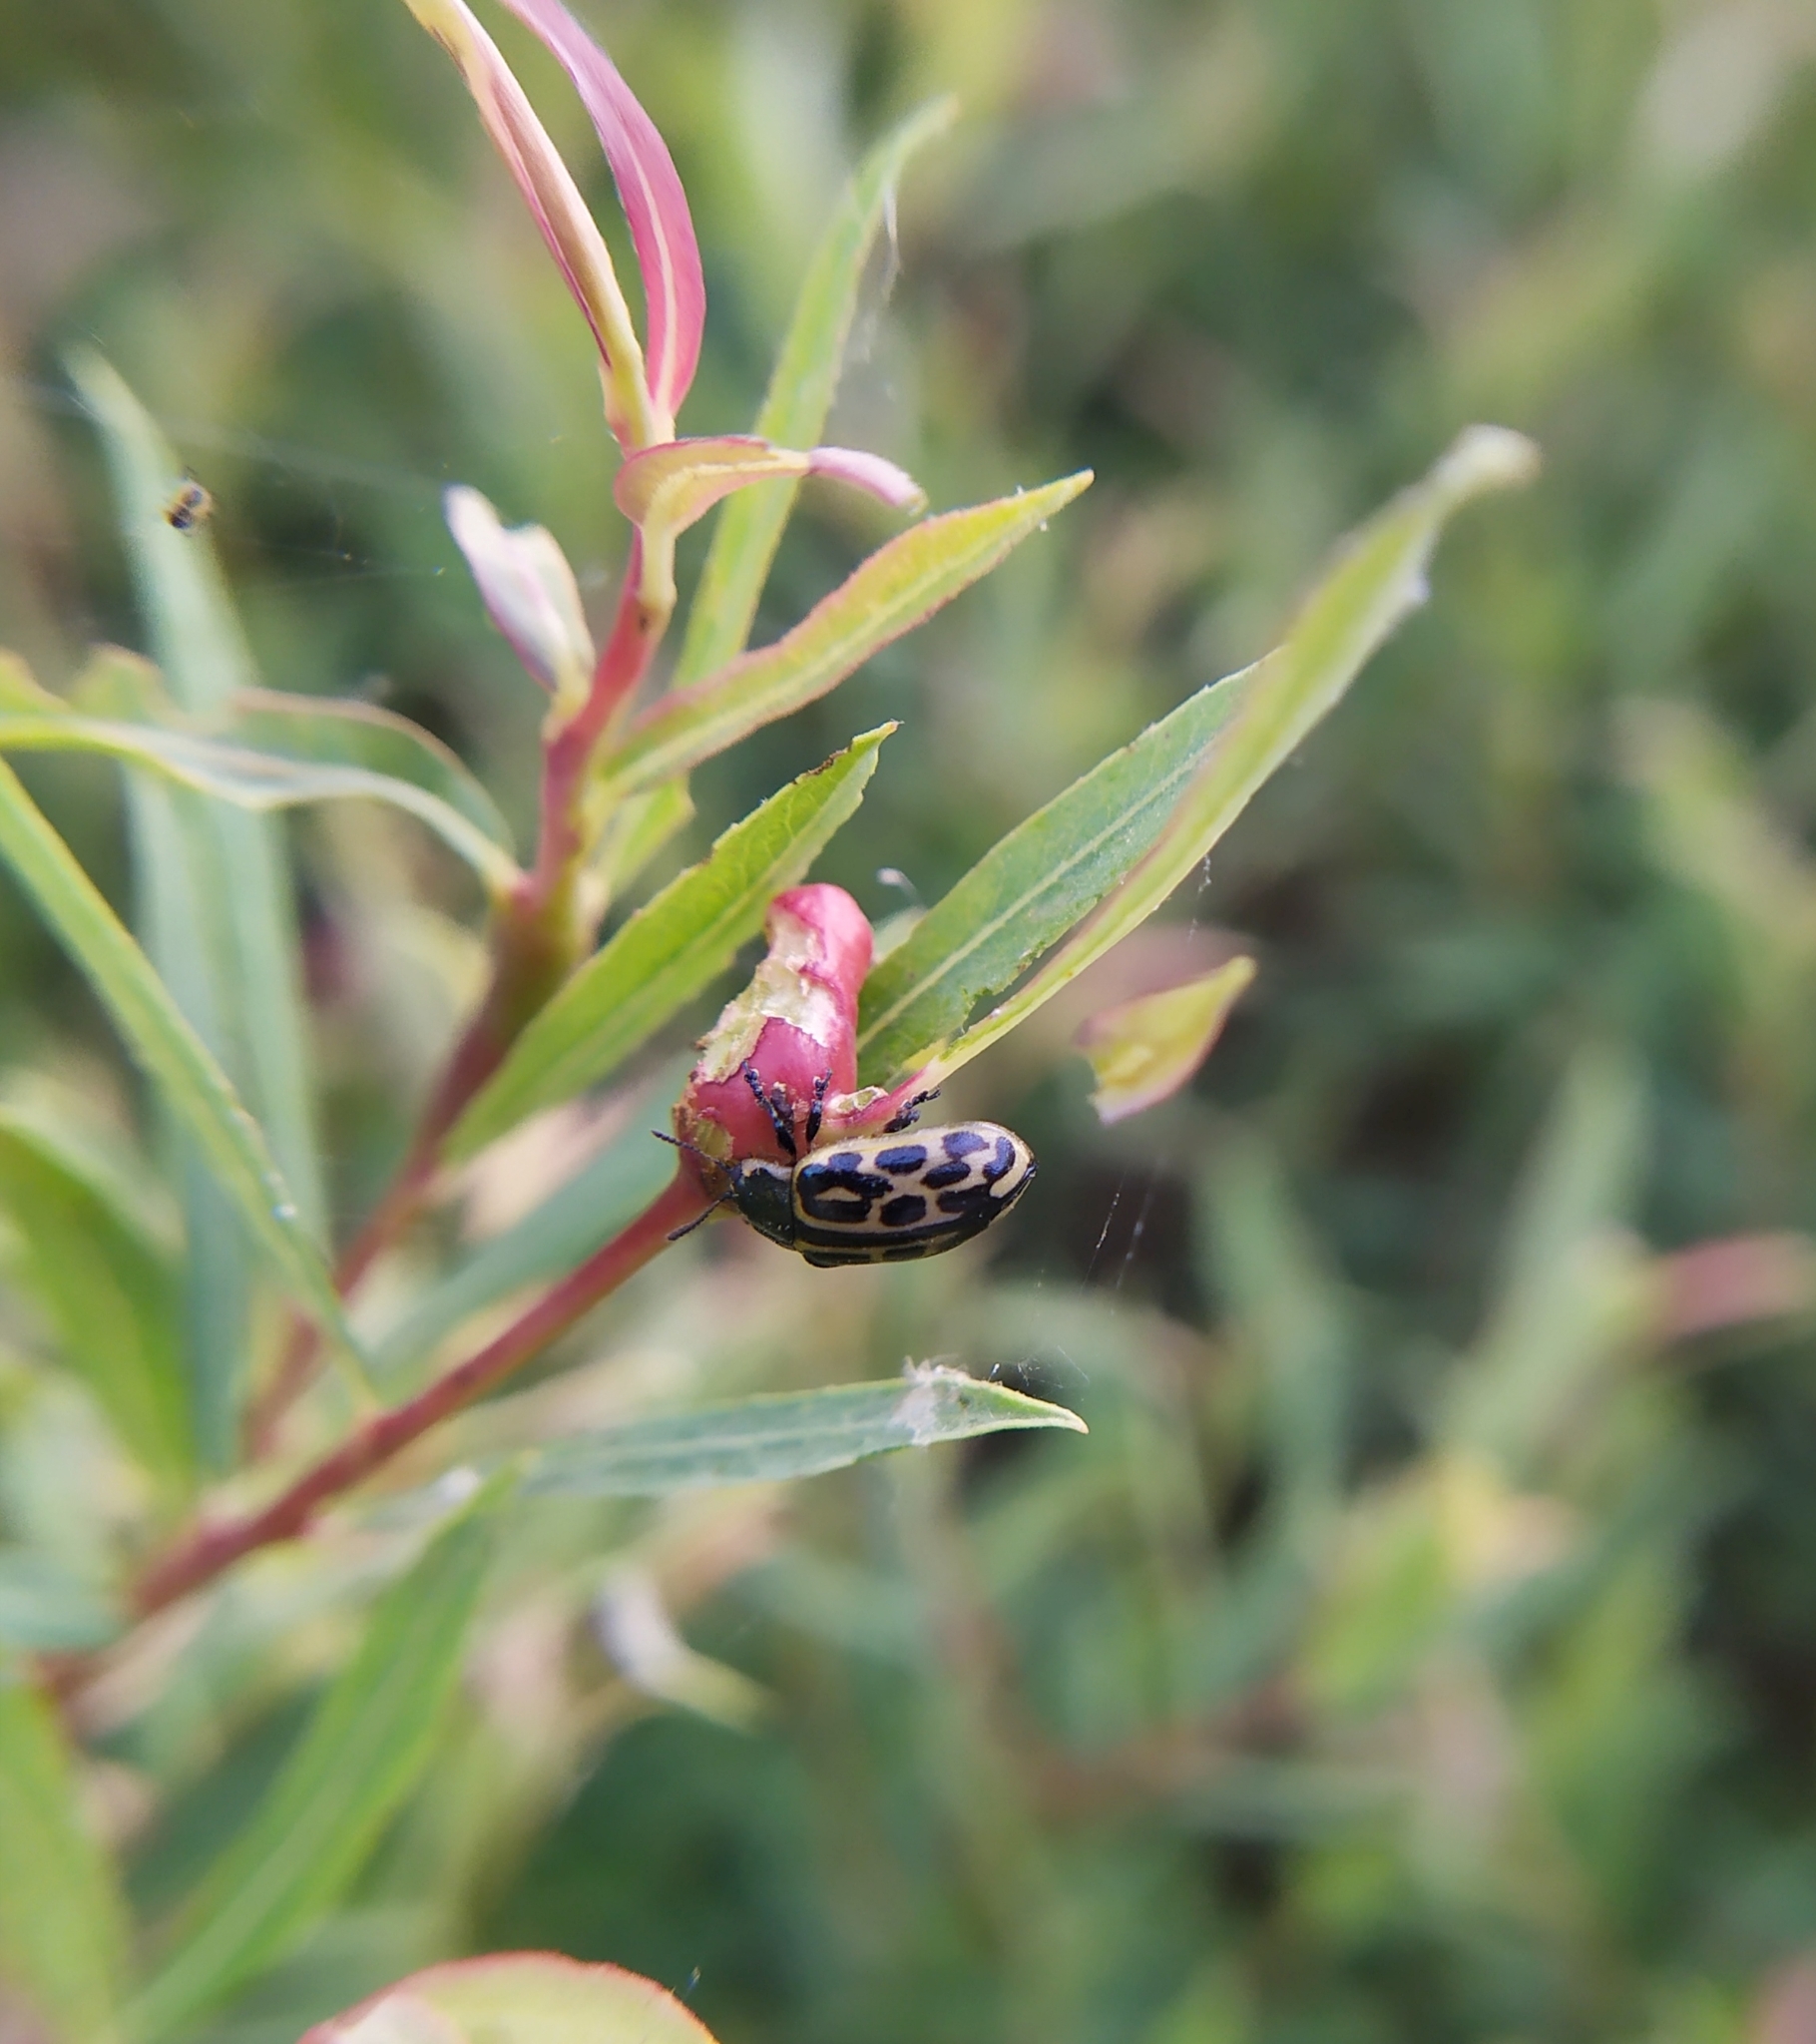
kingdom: Animalia
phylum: Arthropoda
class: Insecta
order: Coleoptera
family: Chrysomelidae
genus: Chrysomela
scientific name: Chrysomela vigintipunctata
